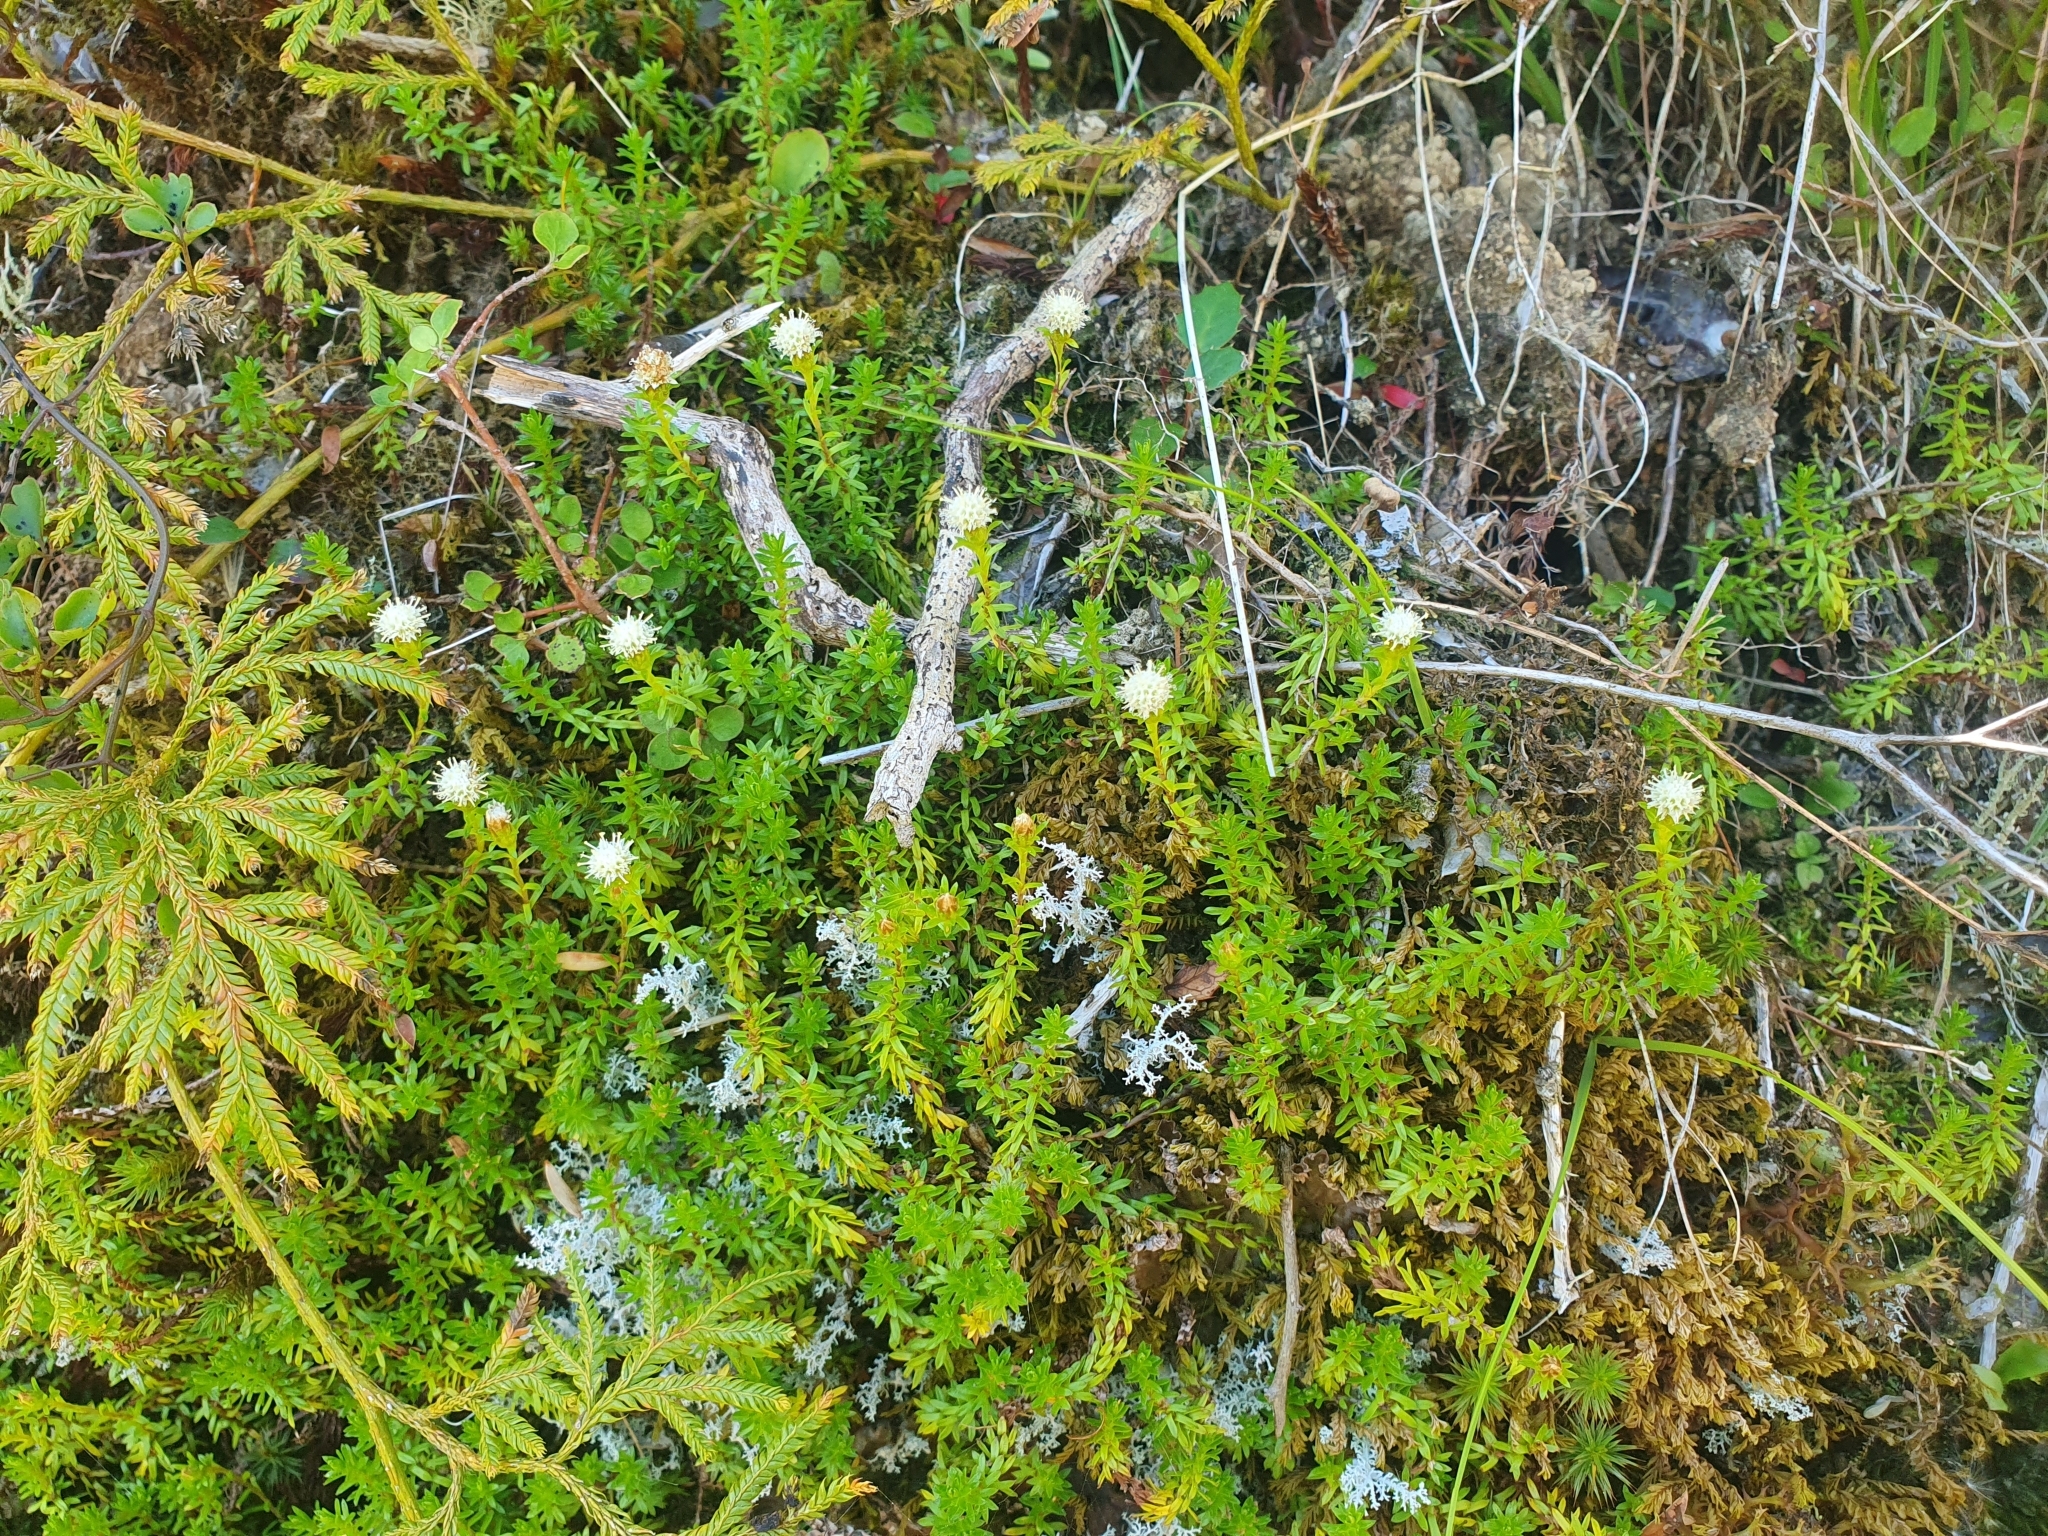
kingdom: Plantae
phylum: Tracheophyta
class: Magnoliopsida
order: Asterales
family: Asteraceae
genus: Raoulia
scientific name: Raoulia glabra
